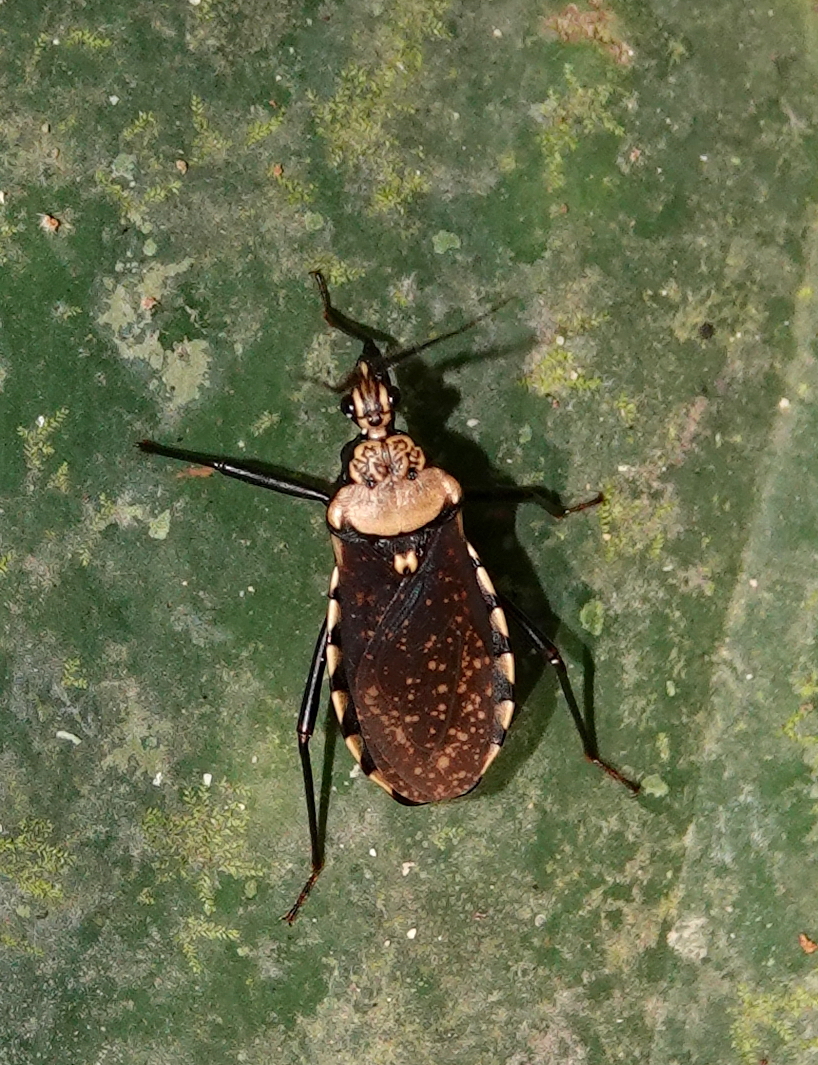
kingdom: Animalia
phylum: Arthropoda
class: Insecta
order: Hemiptera
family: Reduviidae
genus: Rhiginia
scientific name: Rhiginia conspersa
